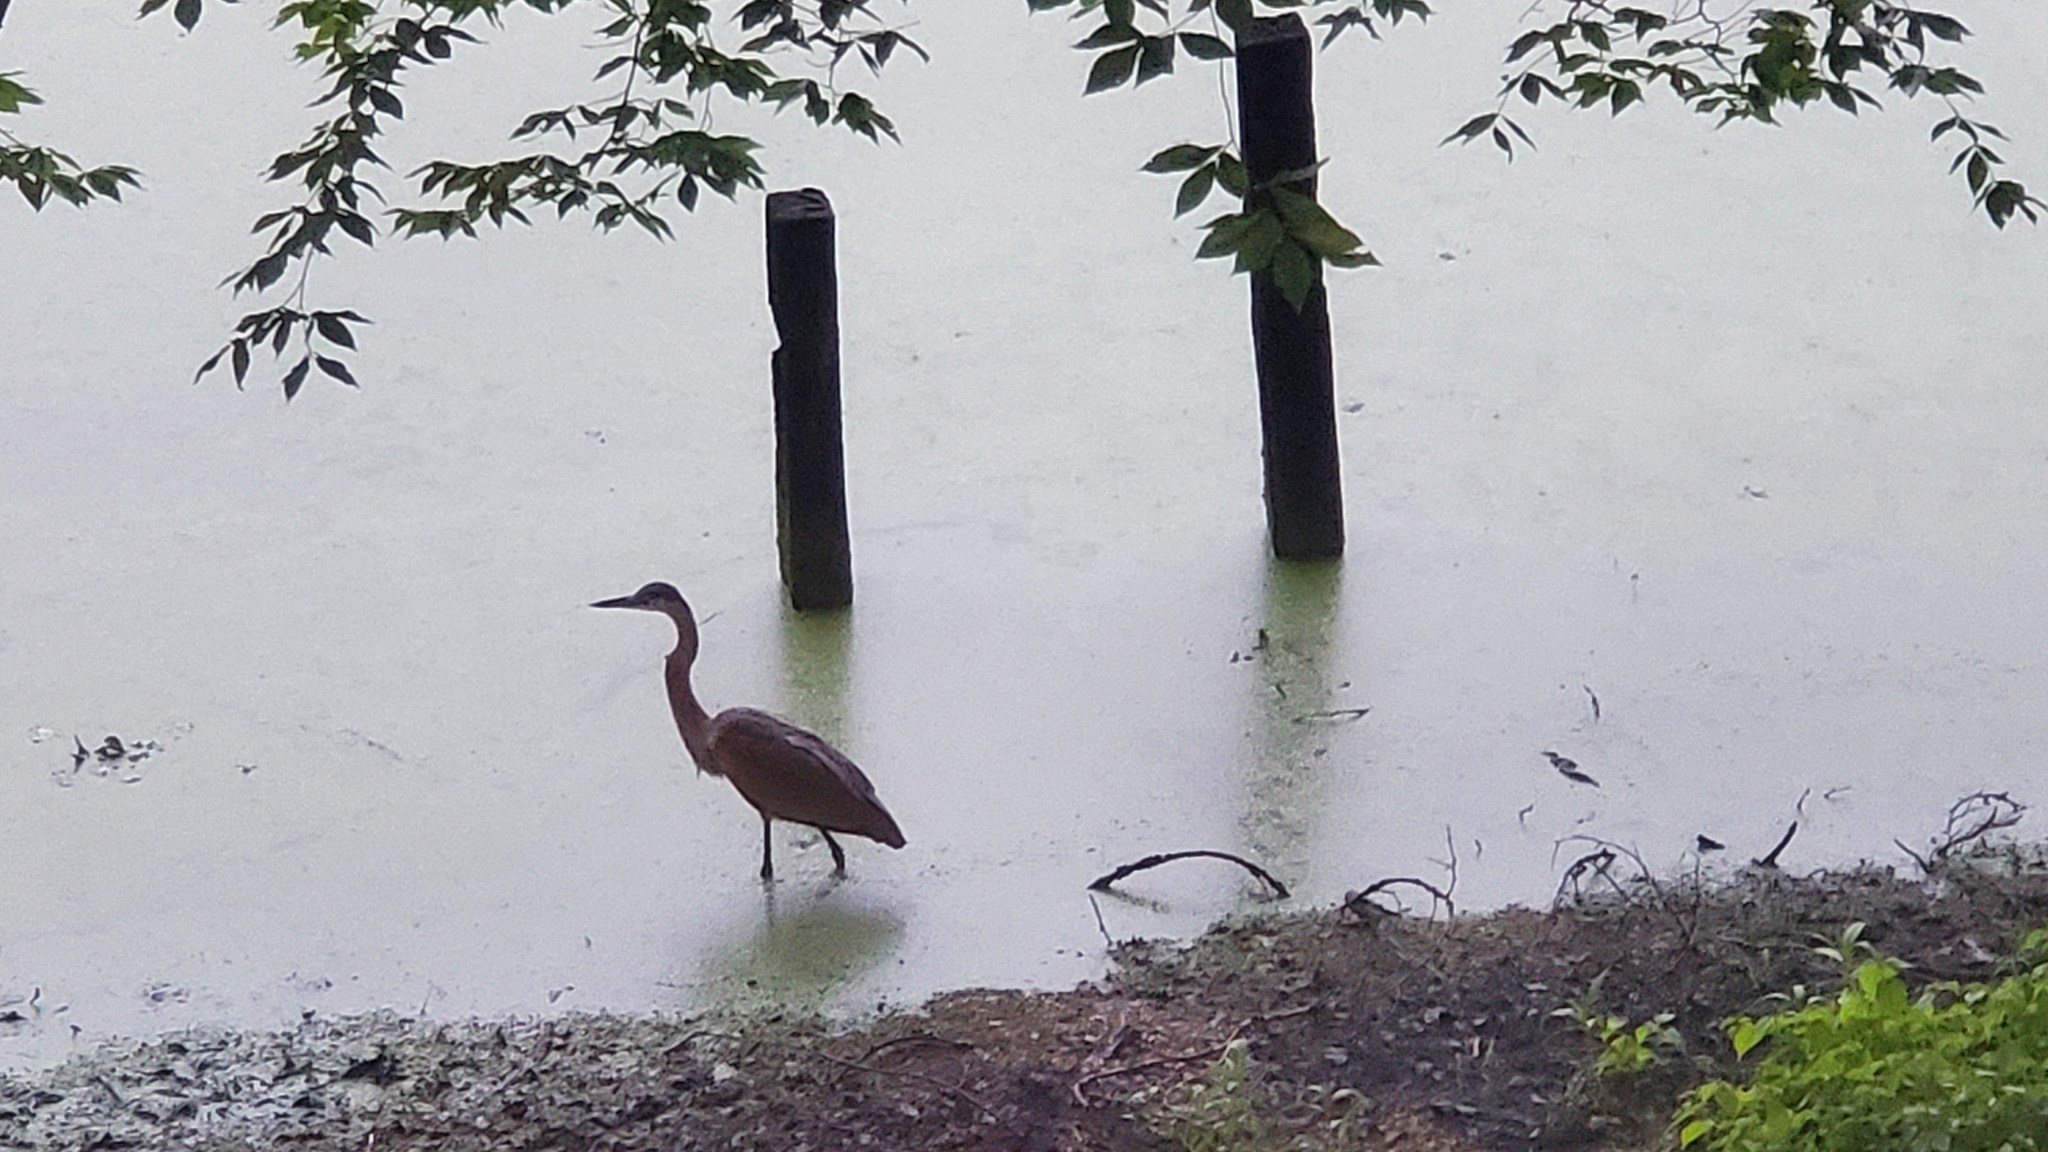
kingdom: Animalia
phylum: Chordata
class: Aves
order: Pelecaniformes
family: Ardeidae
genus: Ardea
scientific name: Ardea herodias
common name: Great blue heron
